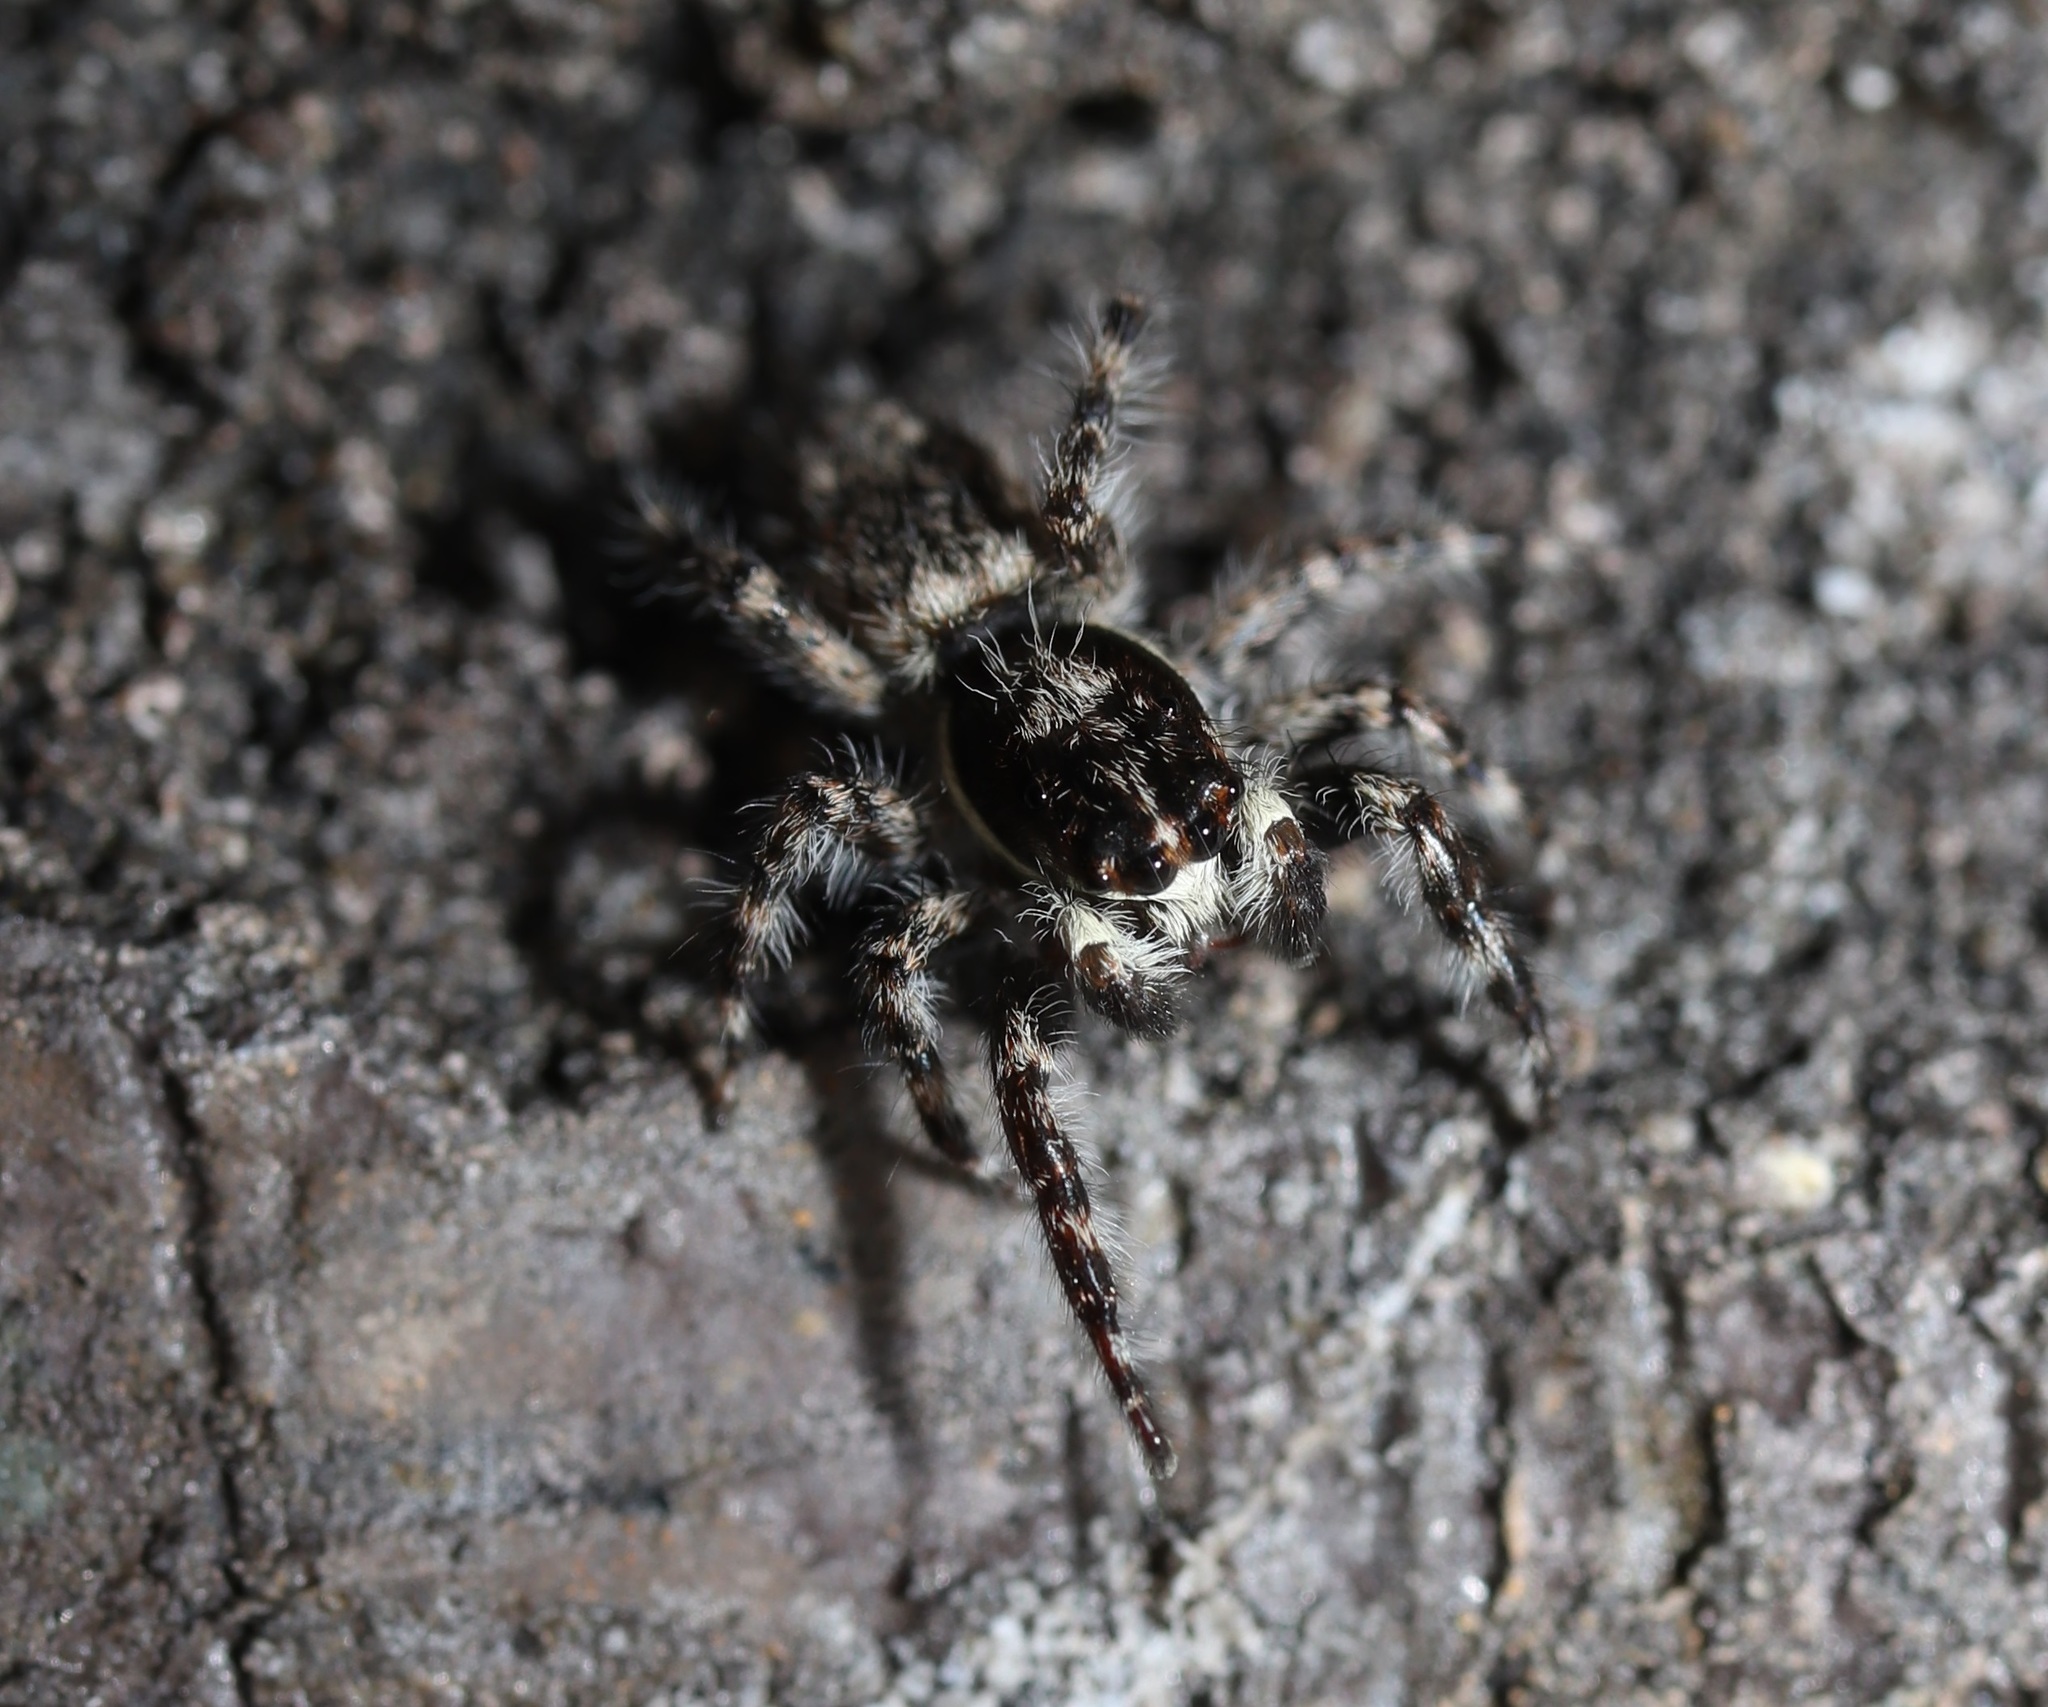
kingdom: Animalia
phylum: Arthropoda
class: Arachnida
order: Araneae
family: Salticidae
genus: Menemerus
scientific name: Menemerus fulvus
